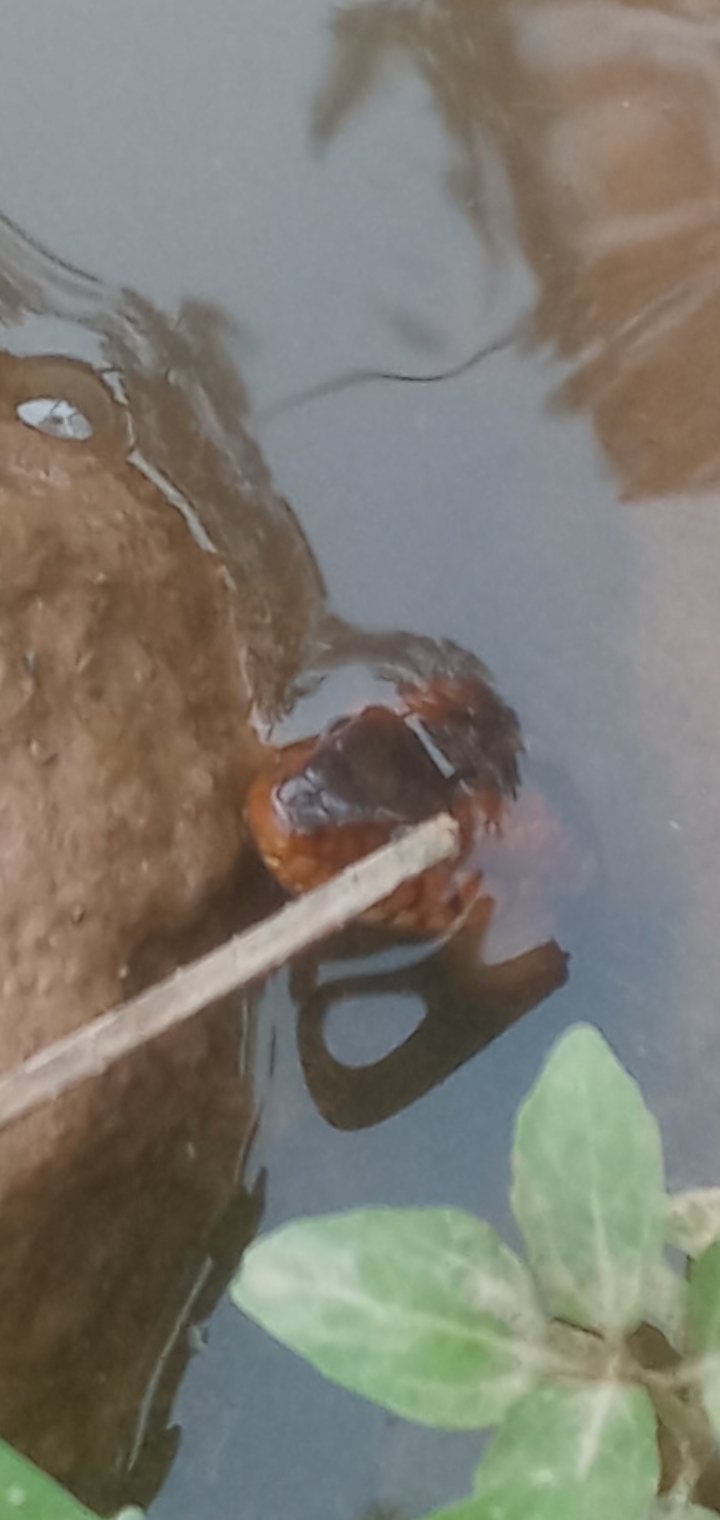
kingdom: Animalia
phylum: Chordata
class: Squamata
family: Colubridae
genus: Nerodia
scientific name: Nerodia fasciata
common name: Southern water snake
